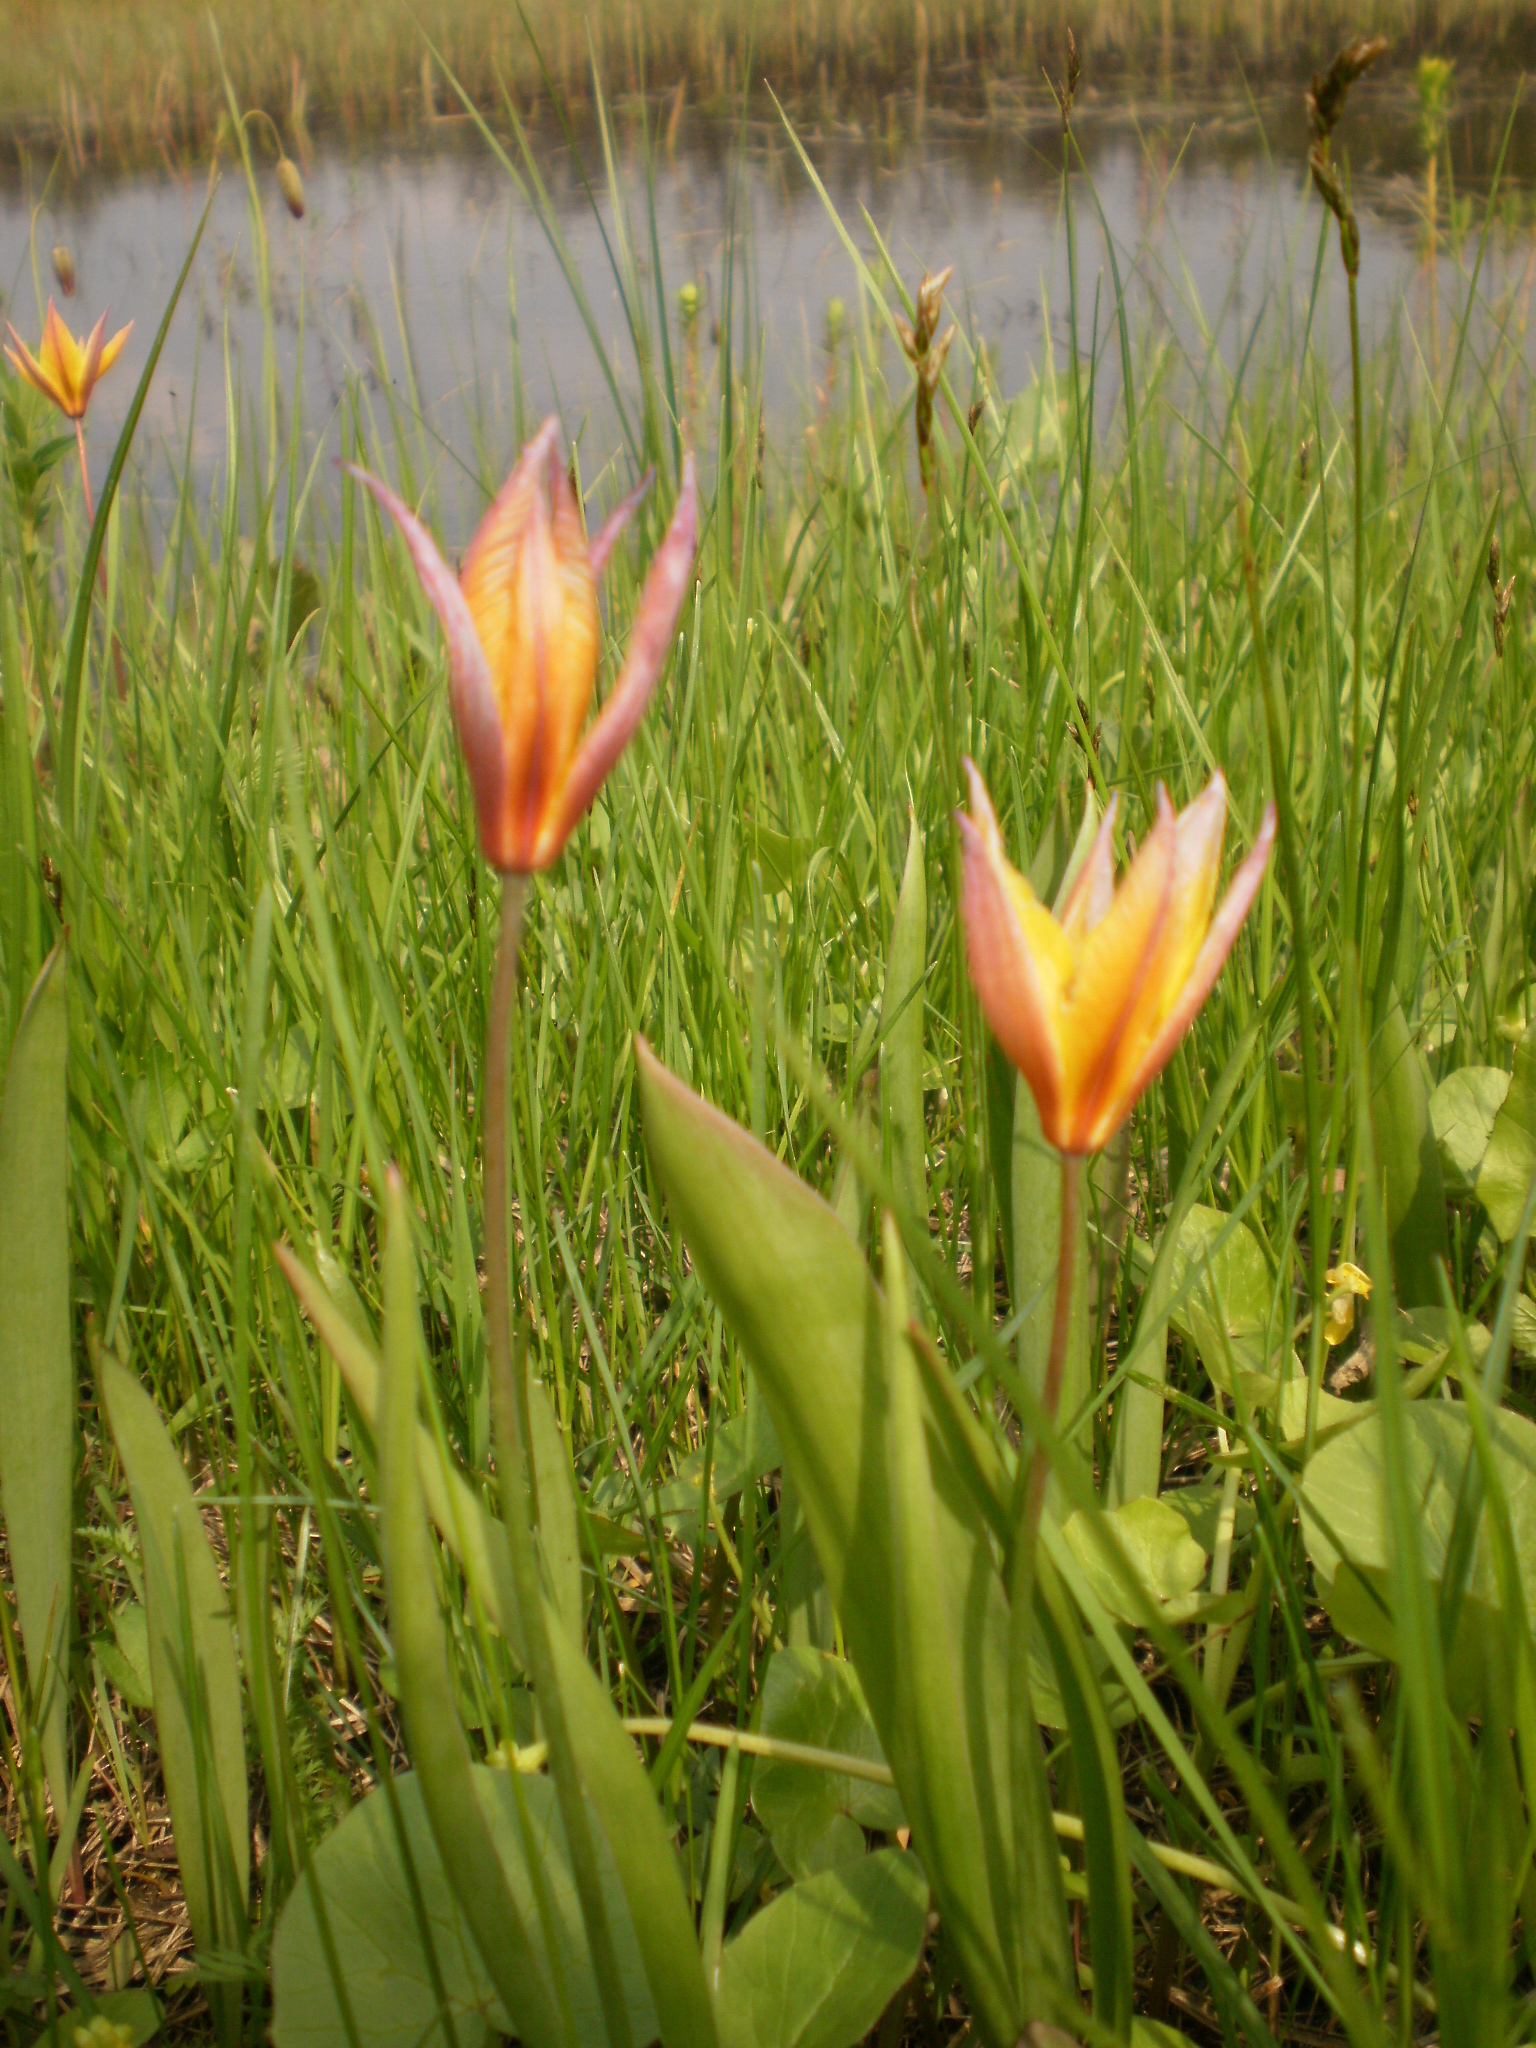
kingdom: Plantae
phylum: Tracheophyta
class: Liliopsida
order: Liliales
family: Liliaceae
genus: Tulipa
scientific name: Tulipa sylvestris
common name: Wild tulip
